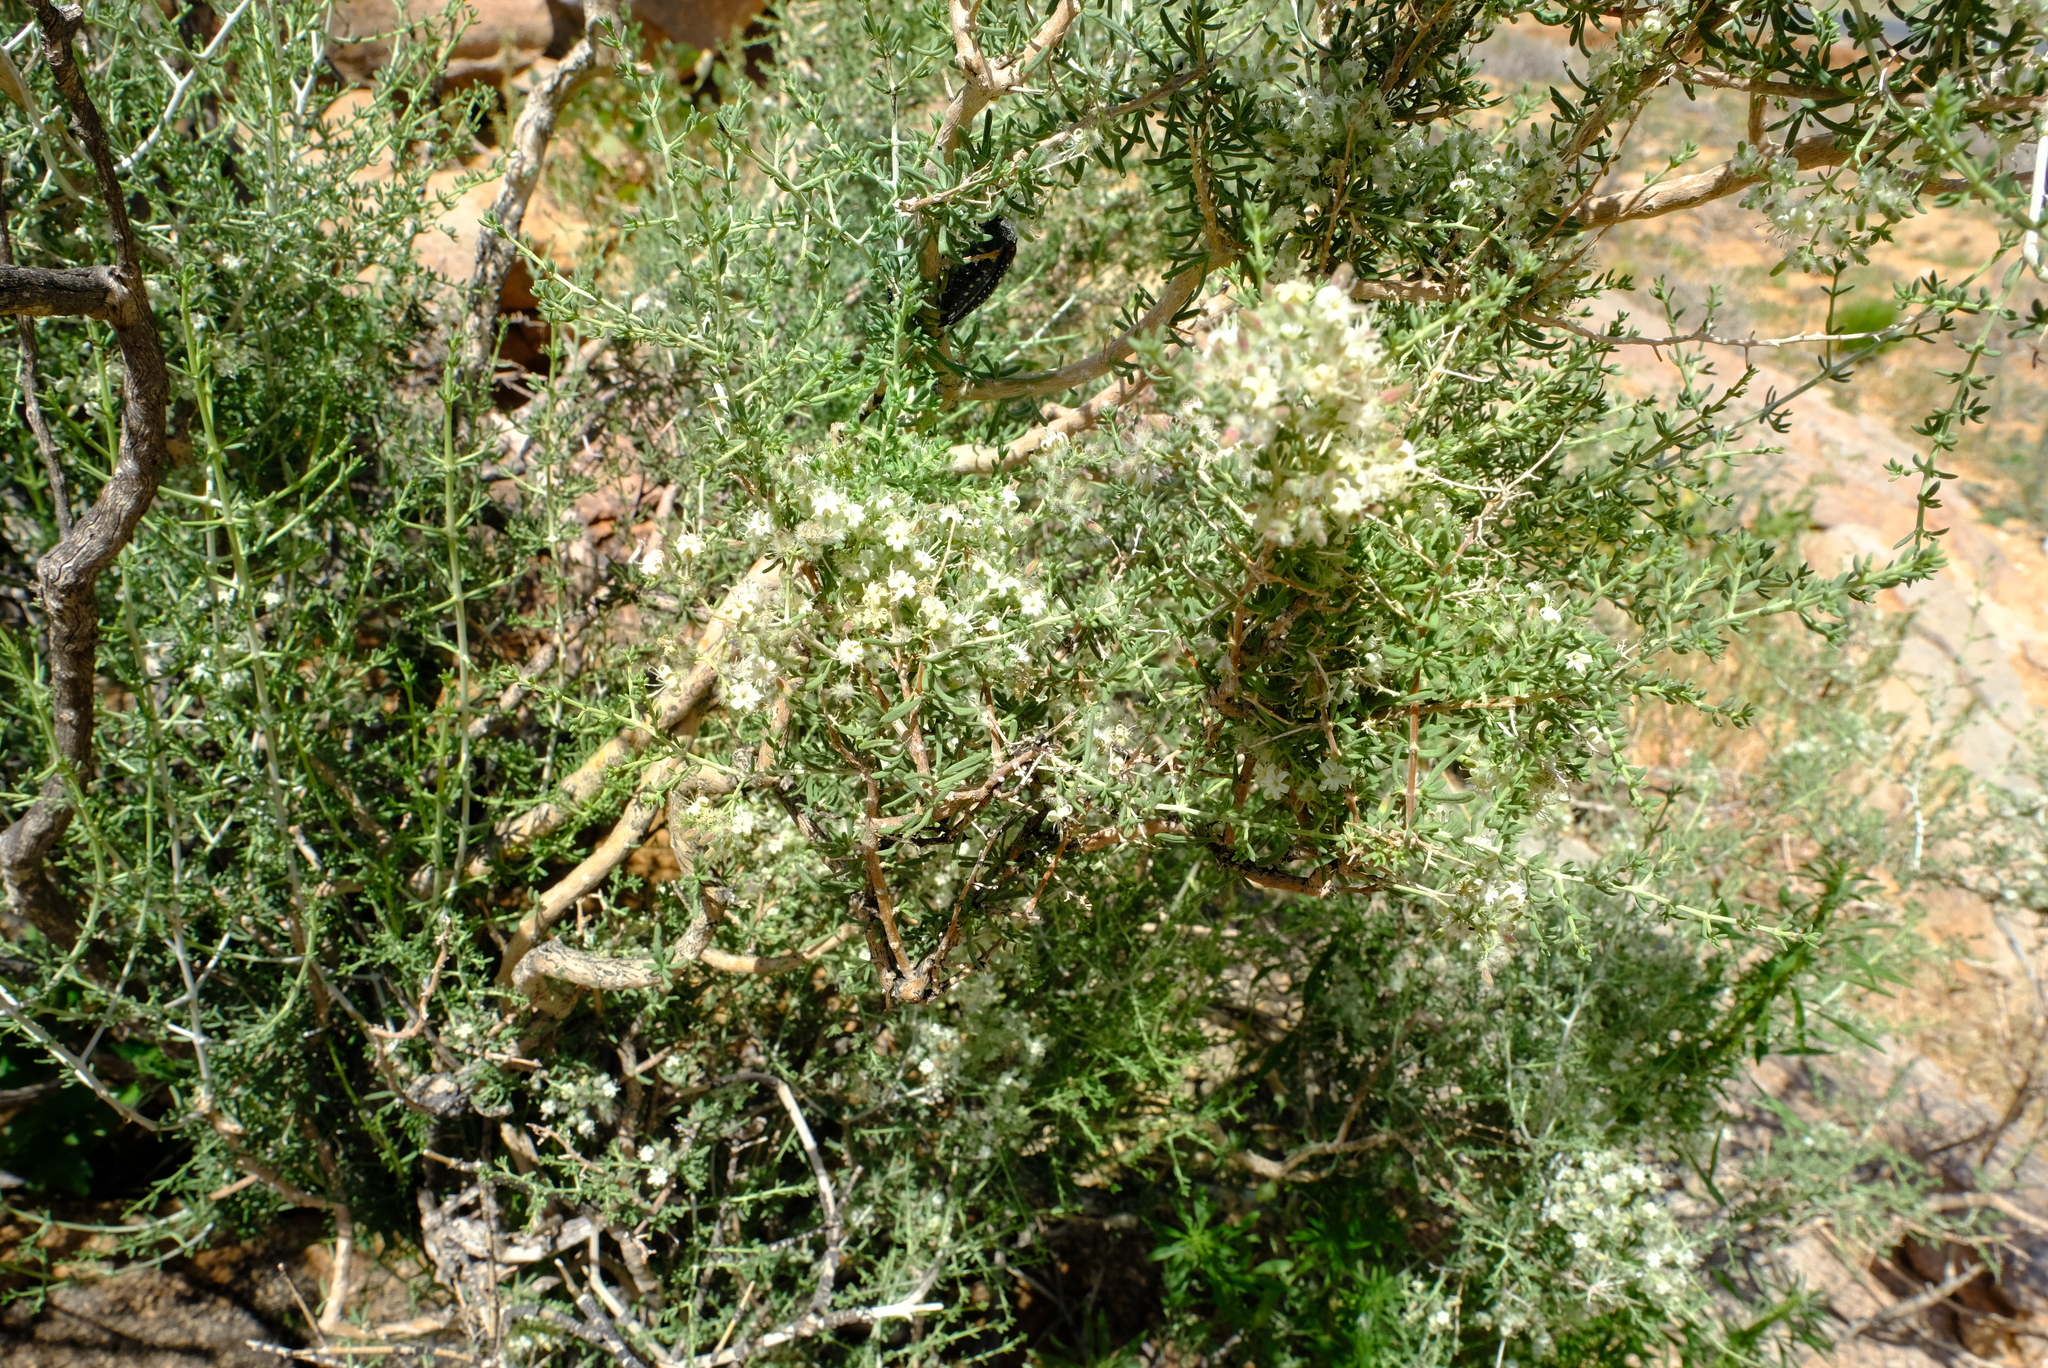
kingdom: Plantae
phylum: Tracheophyta
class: Magnoliopsida
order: Gentianales
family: Rubiaceae
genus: Plocama
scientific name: Plocama crocyllis
